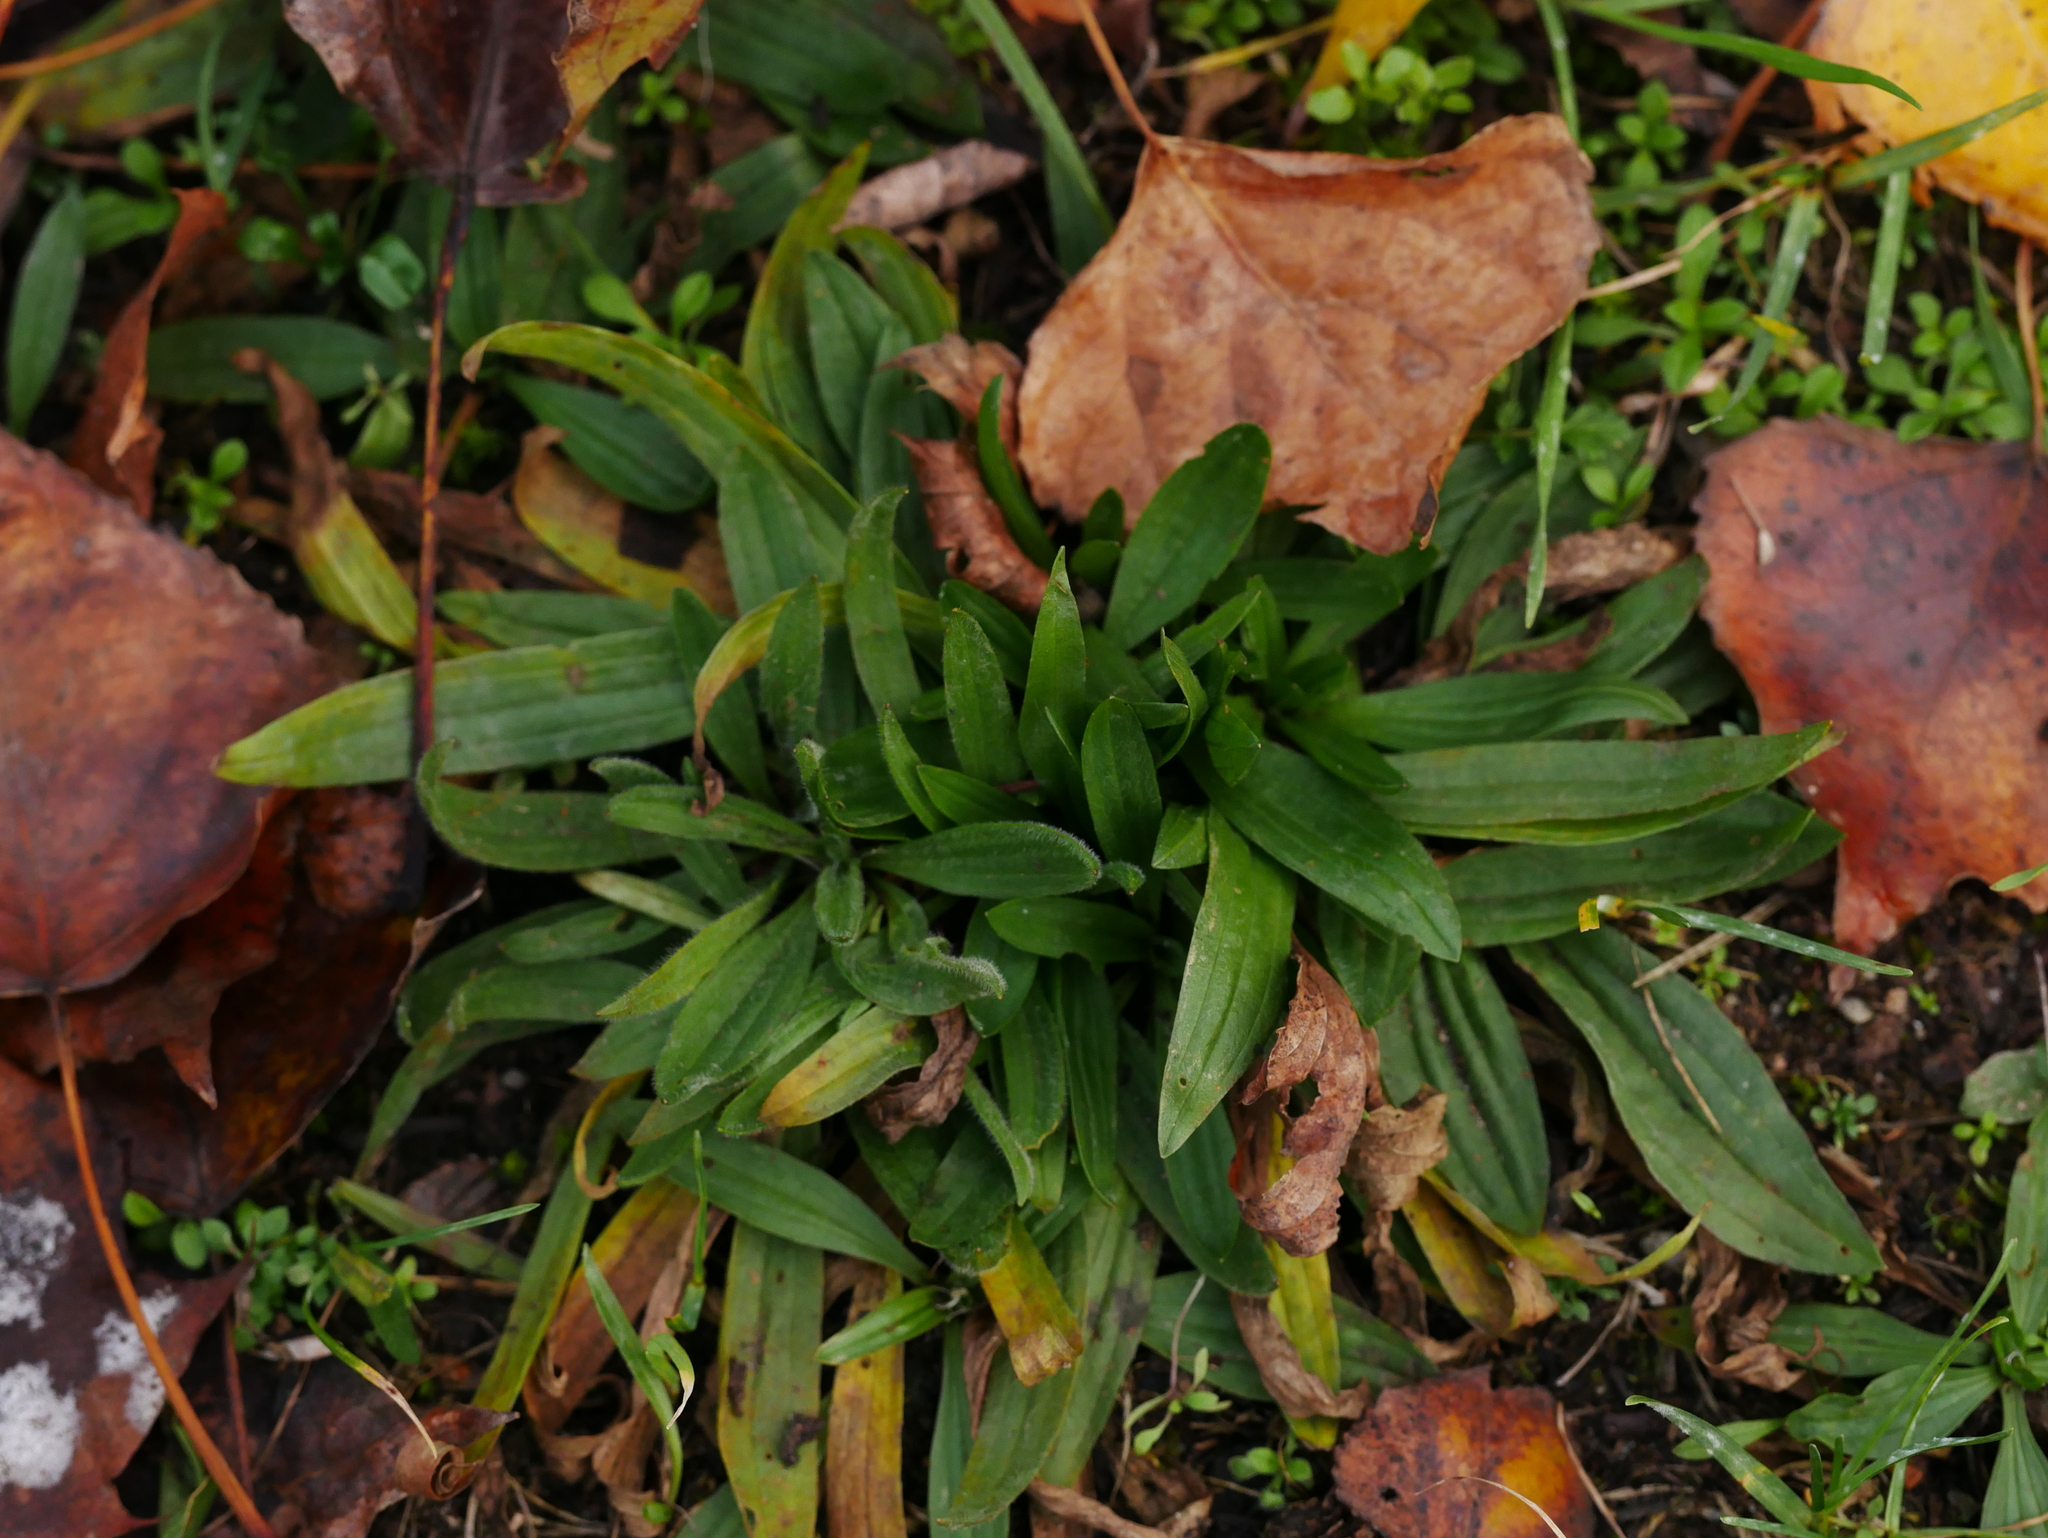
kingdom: Plantae
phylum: Tracheophyta
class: Magnoliopsida
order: Lamiales
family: Plantaginaceae
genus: Plantago
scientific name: Plantago lanceolata
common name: Ribwort plantain
